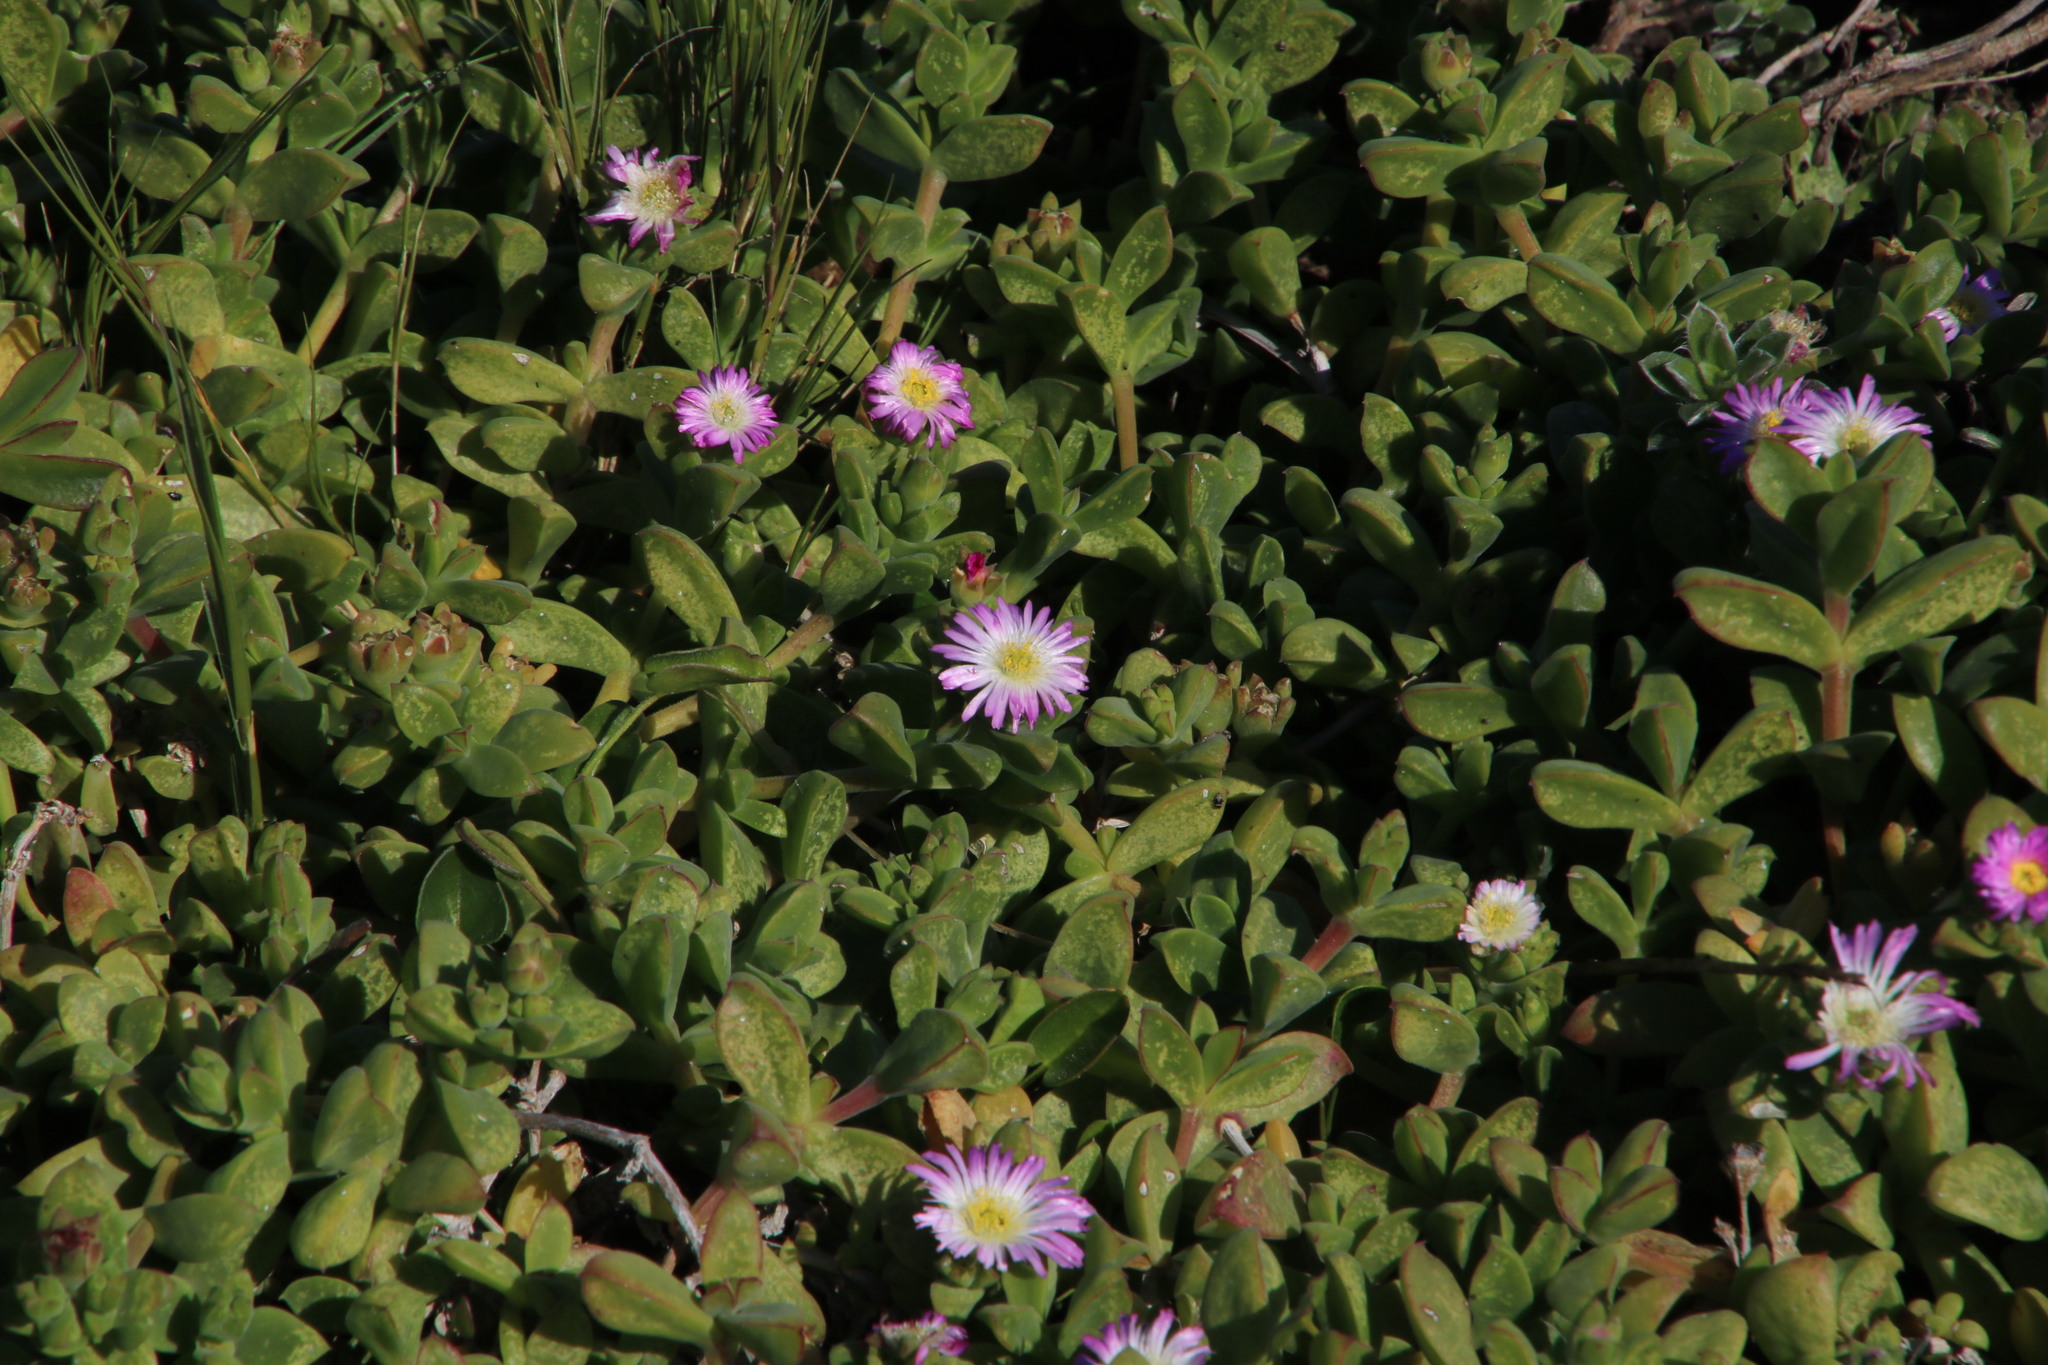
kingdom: Plantae
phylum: Tracheophyta
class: Magnoliopsida
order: Caryophyllales
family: Aizoaceae
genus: Delosperma
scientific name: Delosperma patersoniae
